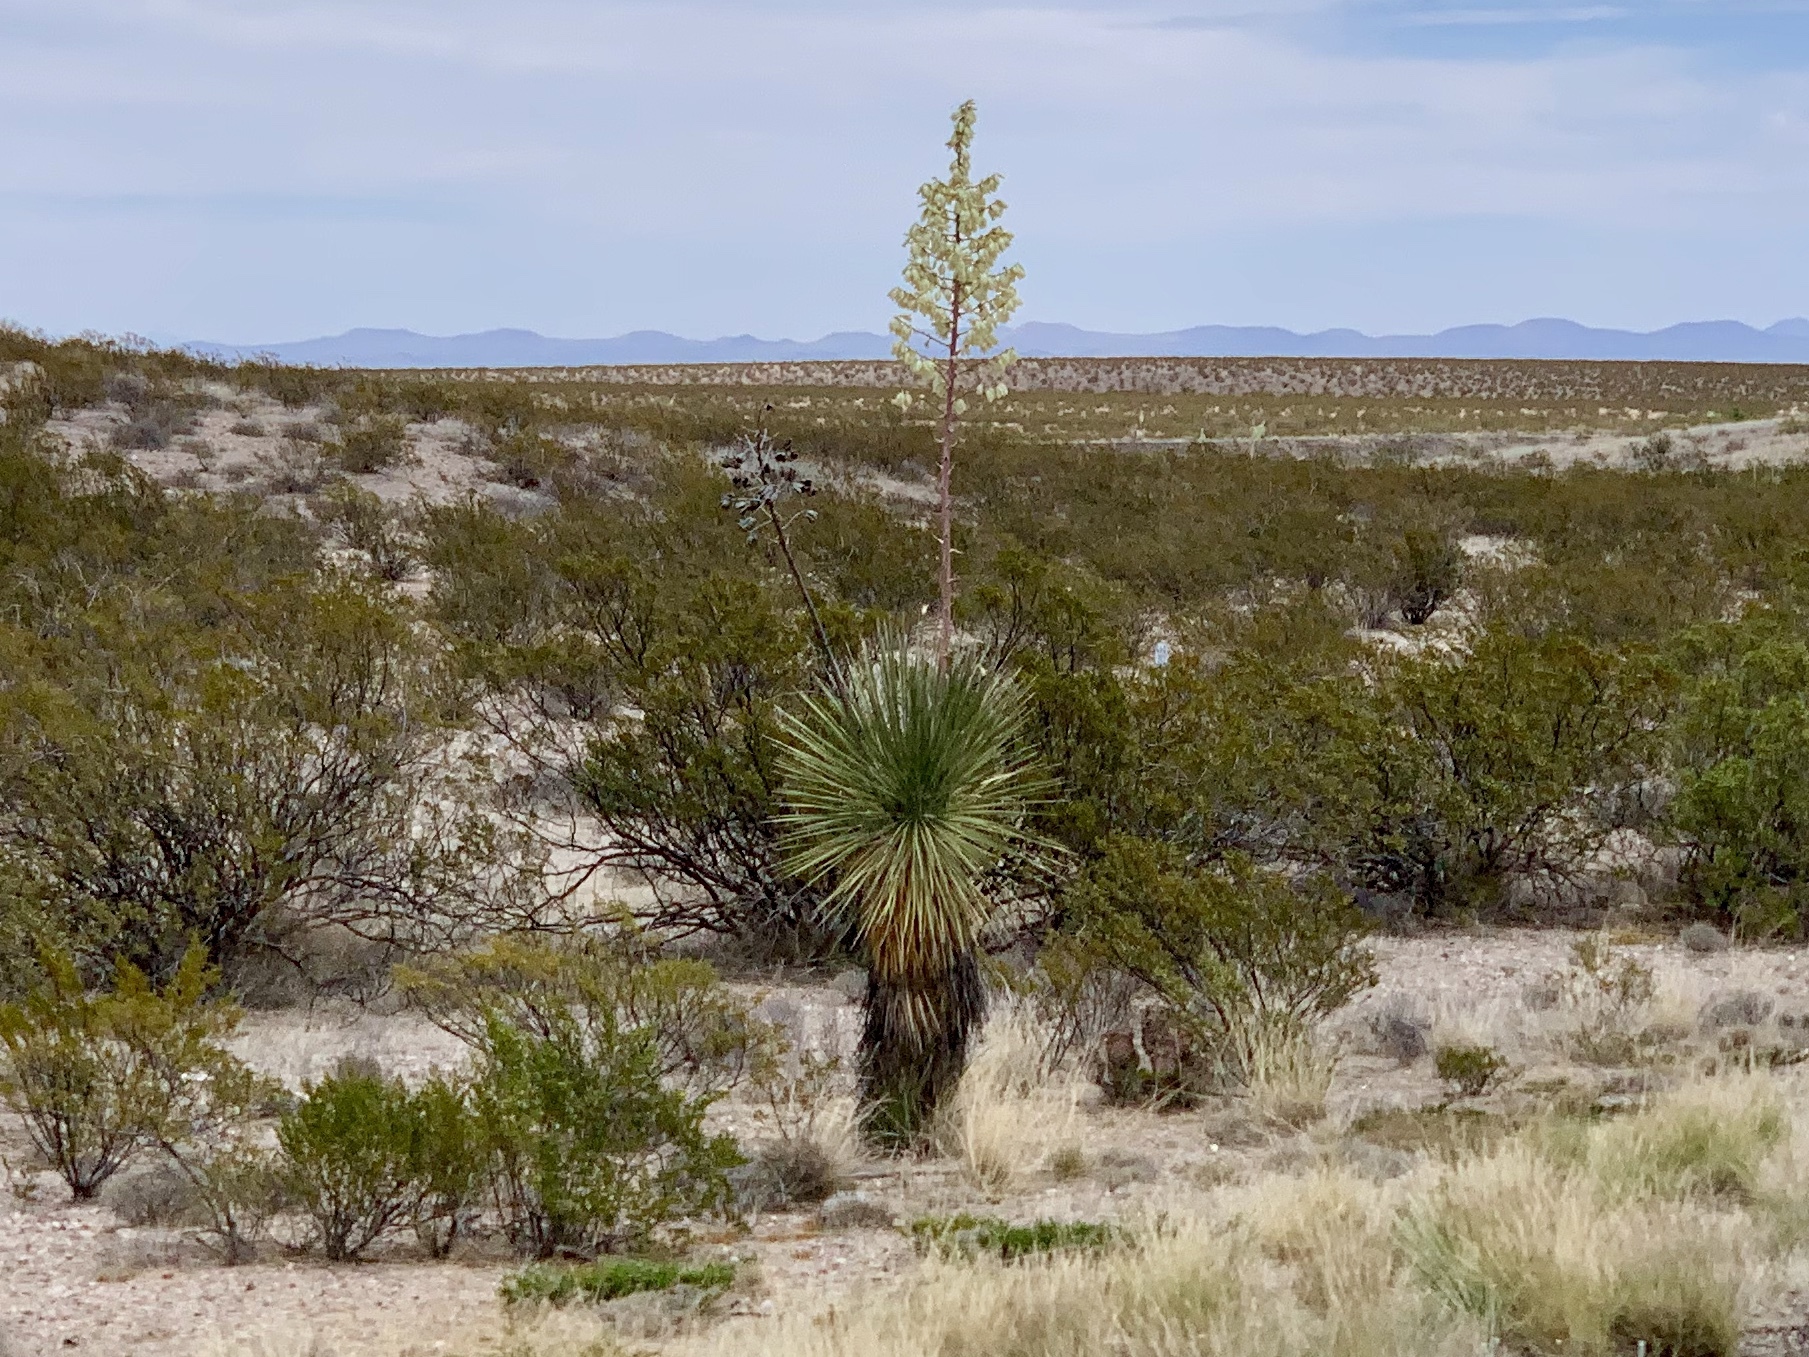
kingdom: Plantae
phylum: Tracheophyta
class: Liliopsida
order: Asparagales
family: Asparagaceae
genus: Yucca
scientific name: Yucca elata
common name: Palmella
